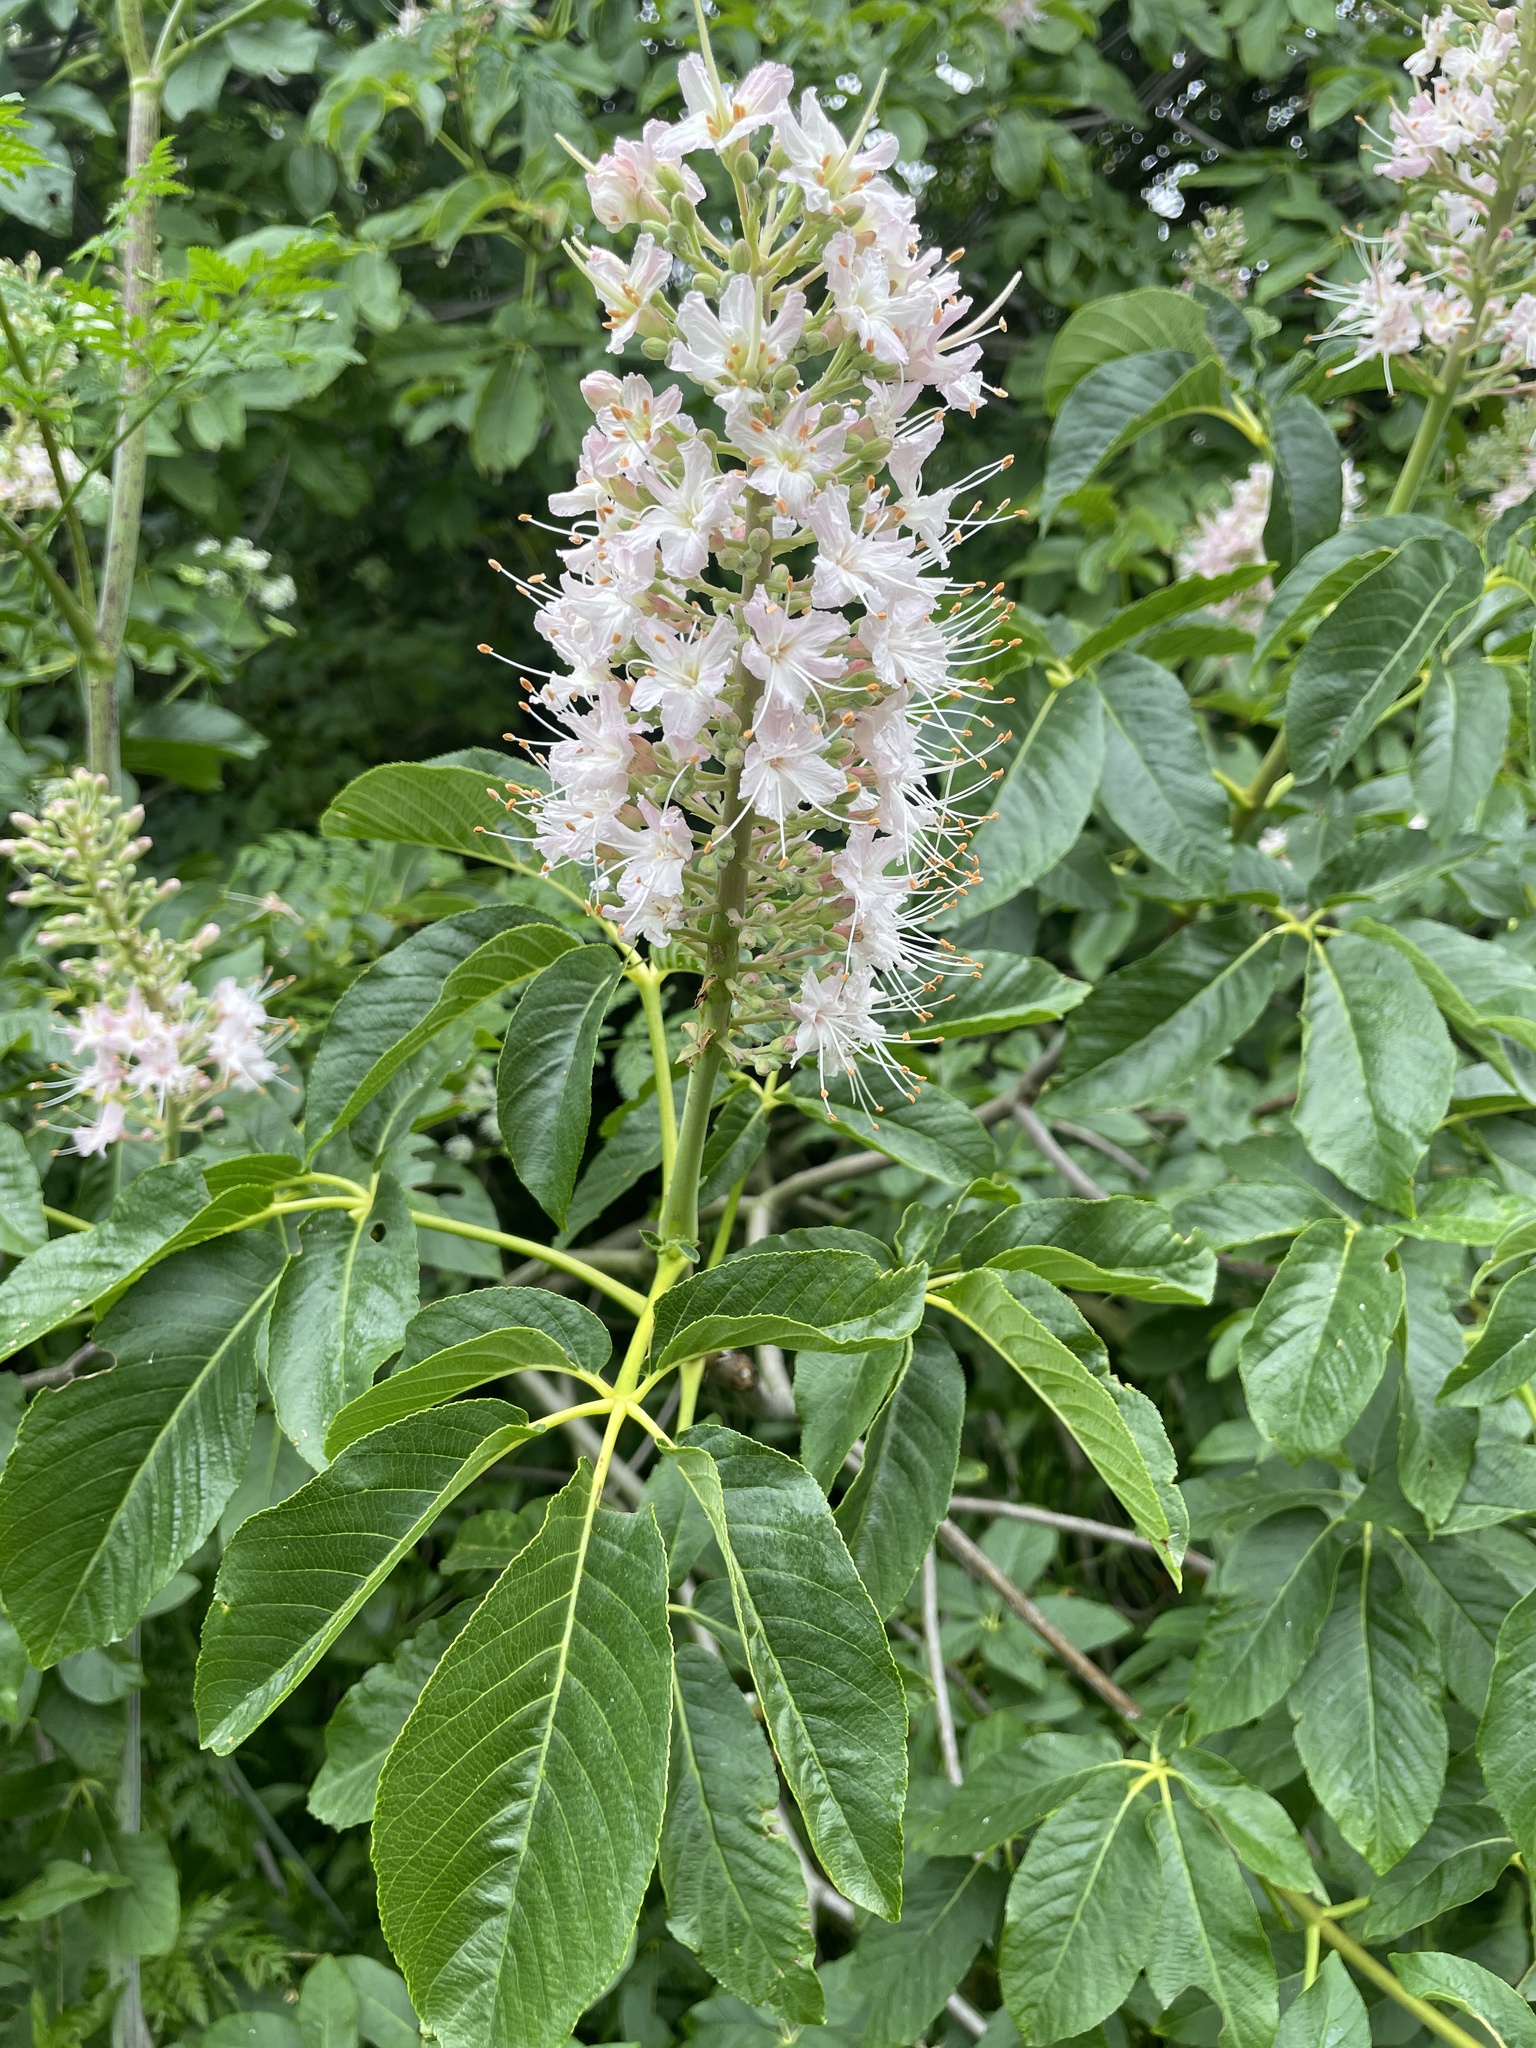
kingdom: Plantae
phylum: Tracheophyta
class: Magnoliopsida
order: Sapindales
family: Sapindaceae
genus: Aesculus
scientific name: Aesculus californica
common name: California buckeye
